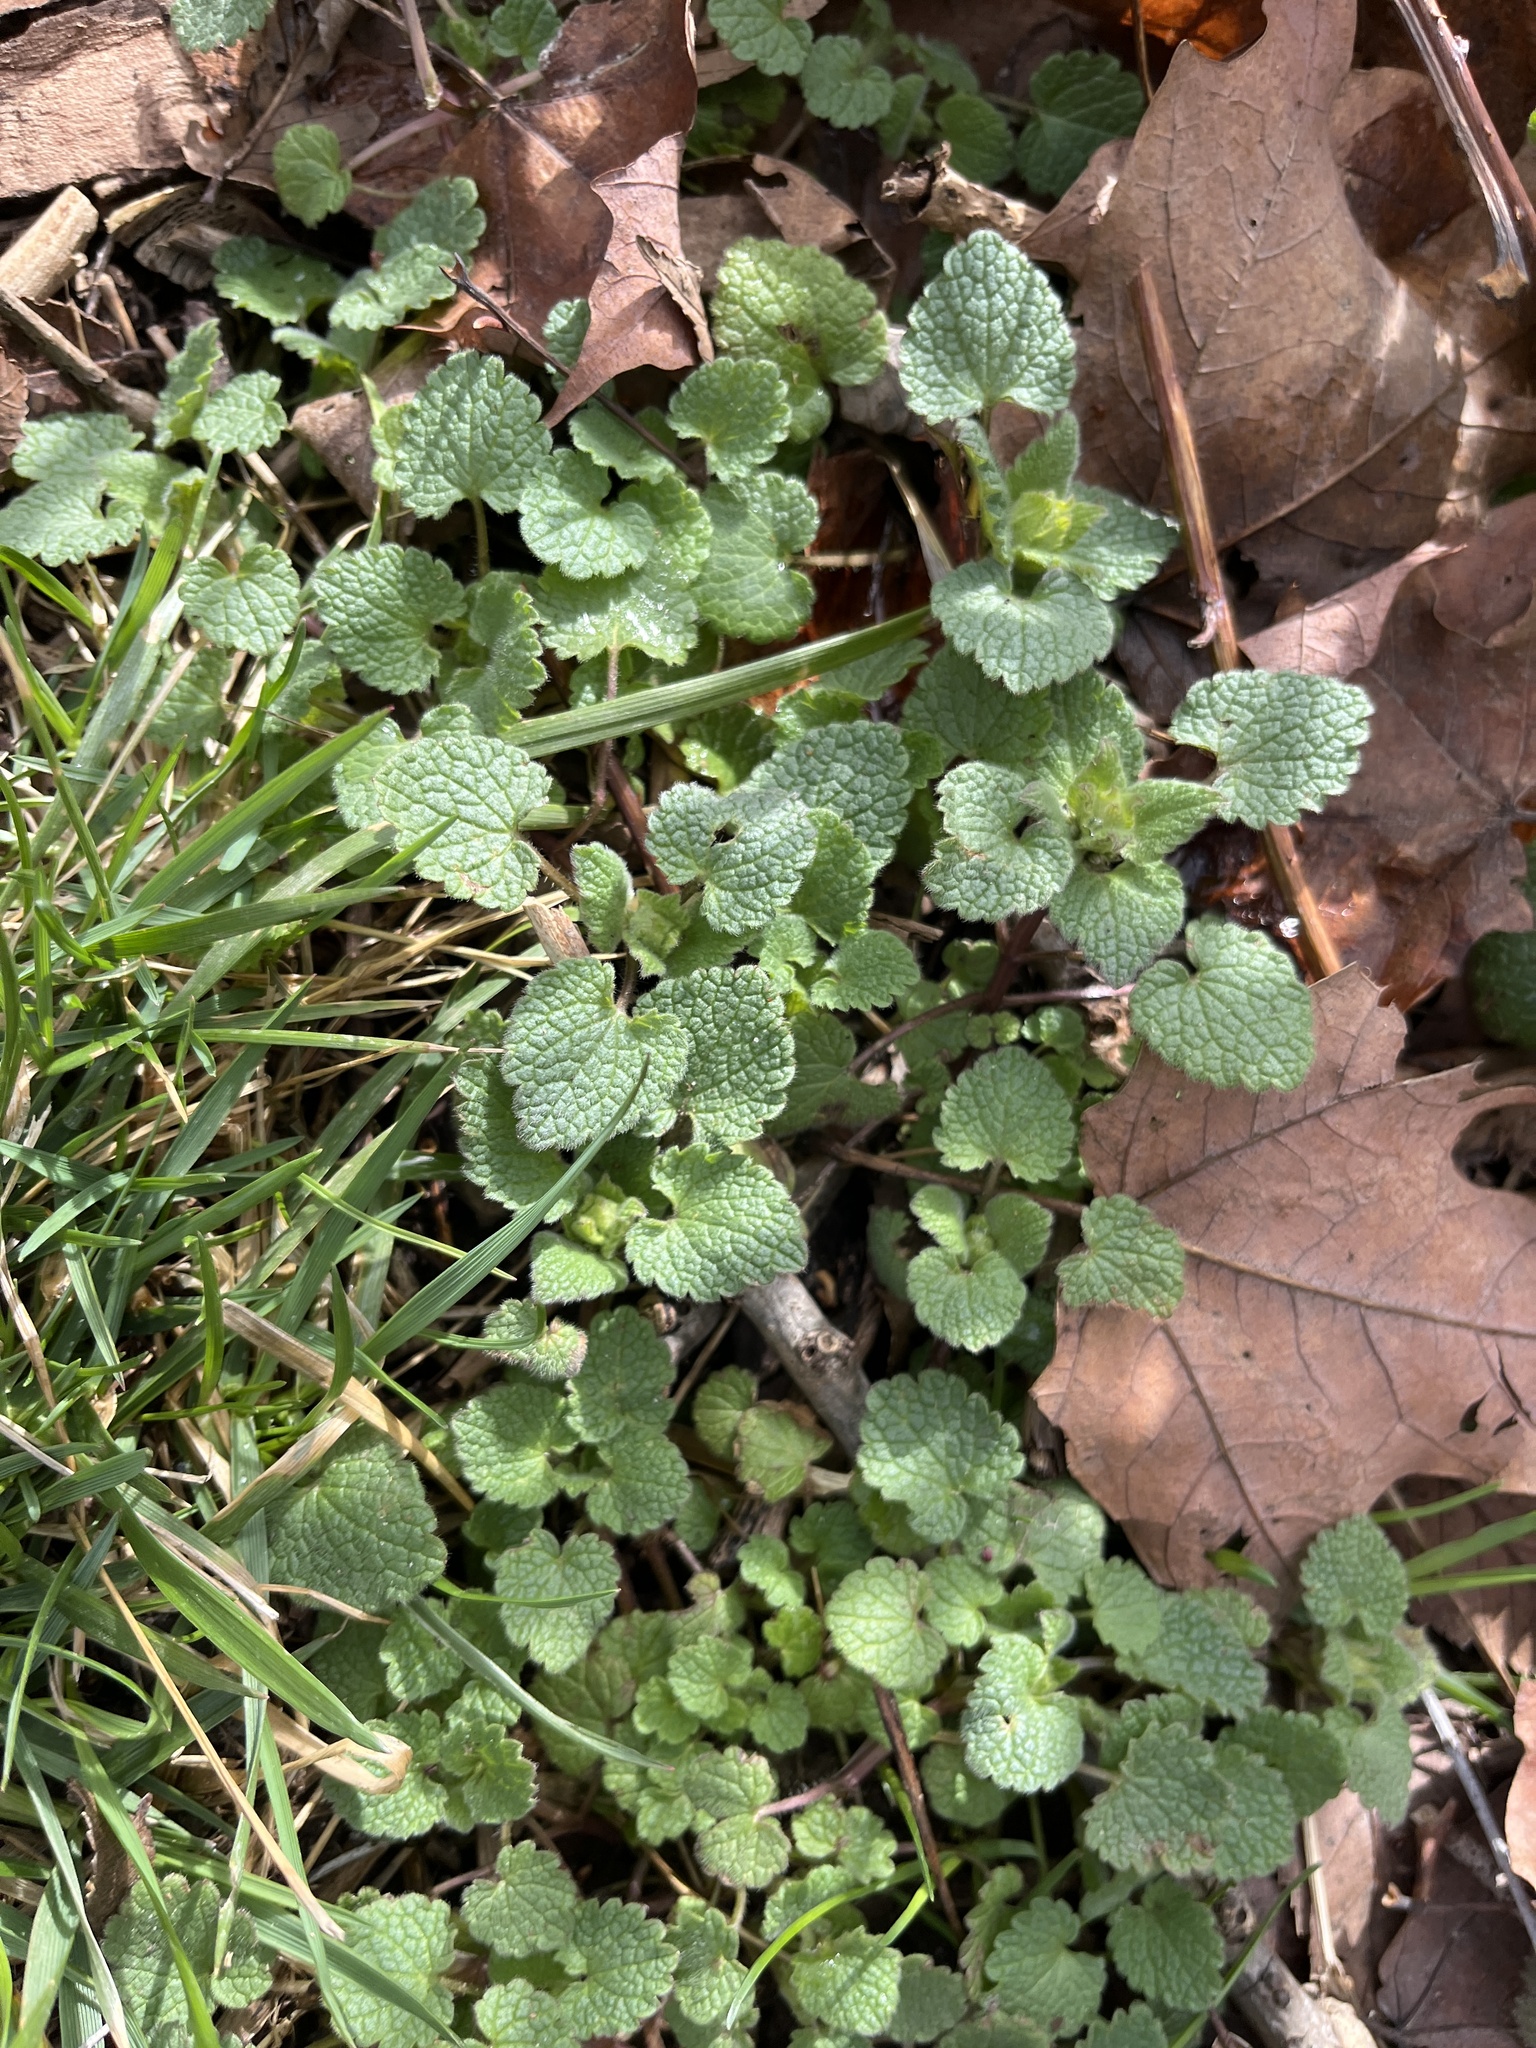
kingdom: Plantae
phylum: Tracheophyta
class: Magnoliopsida
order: Lamiales
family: Lamiaceae
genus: Lamium
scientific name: Lamium purpureum
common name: Red dead-nettle
